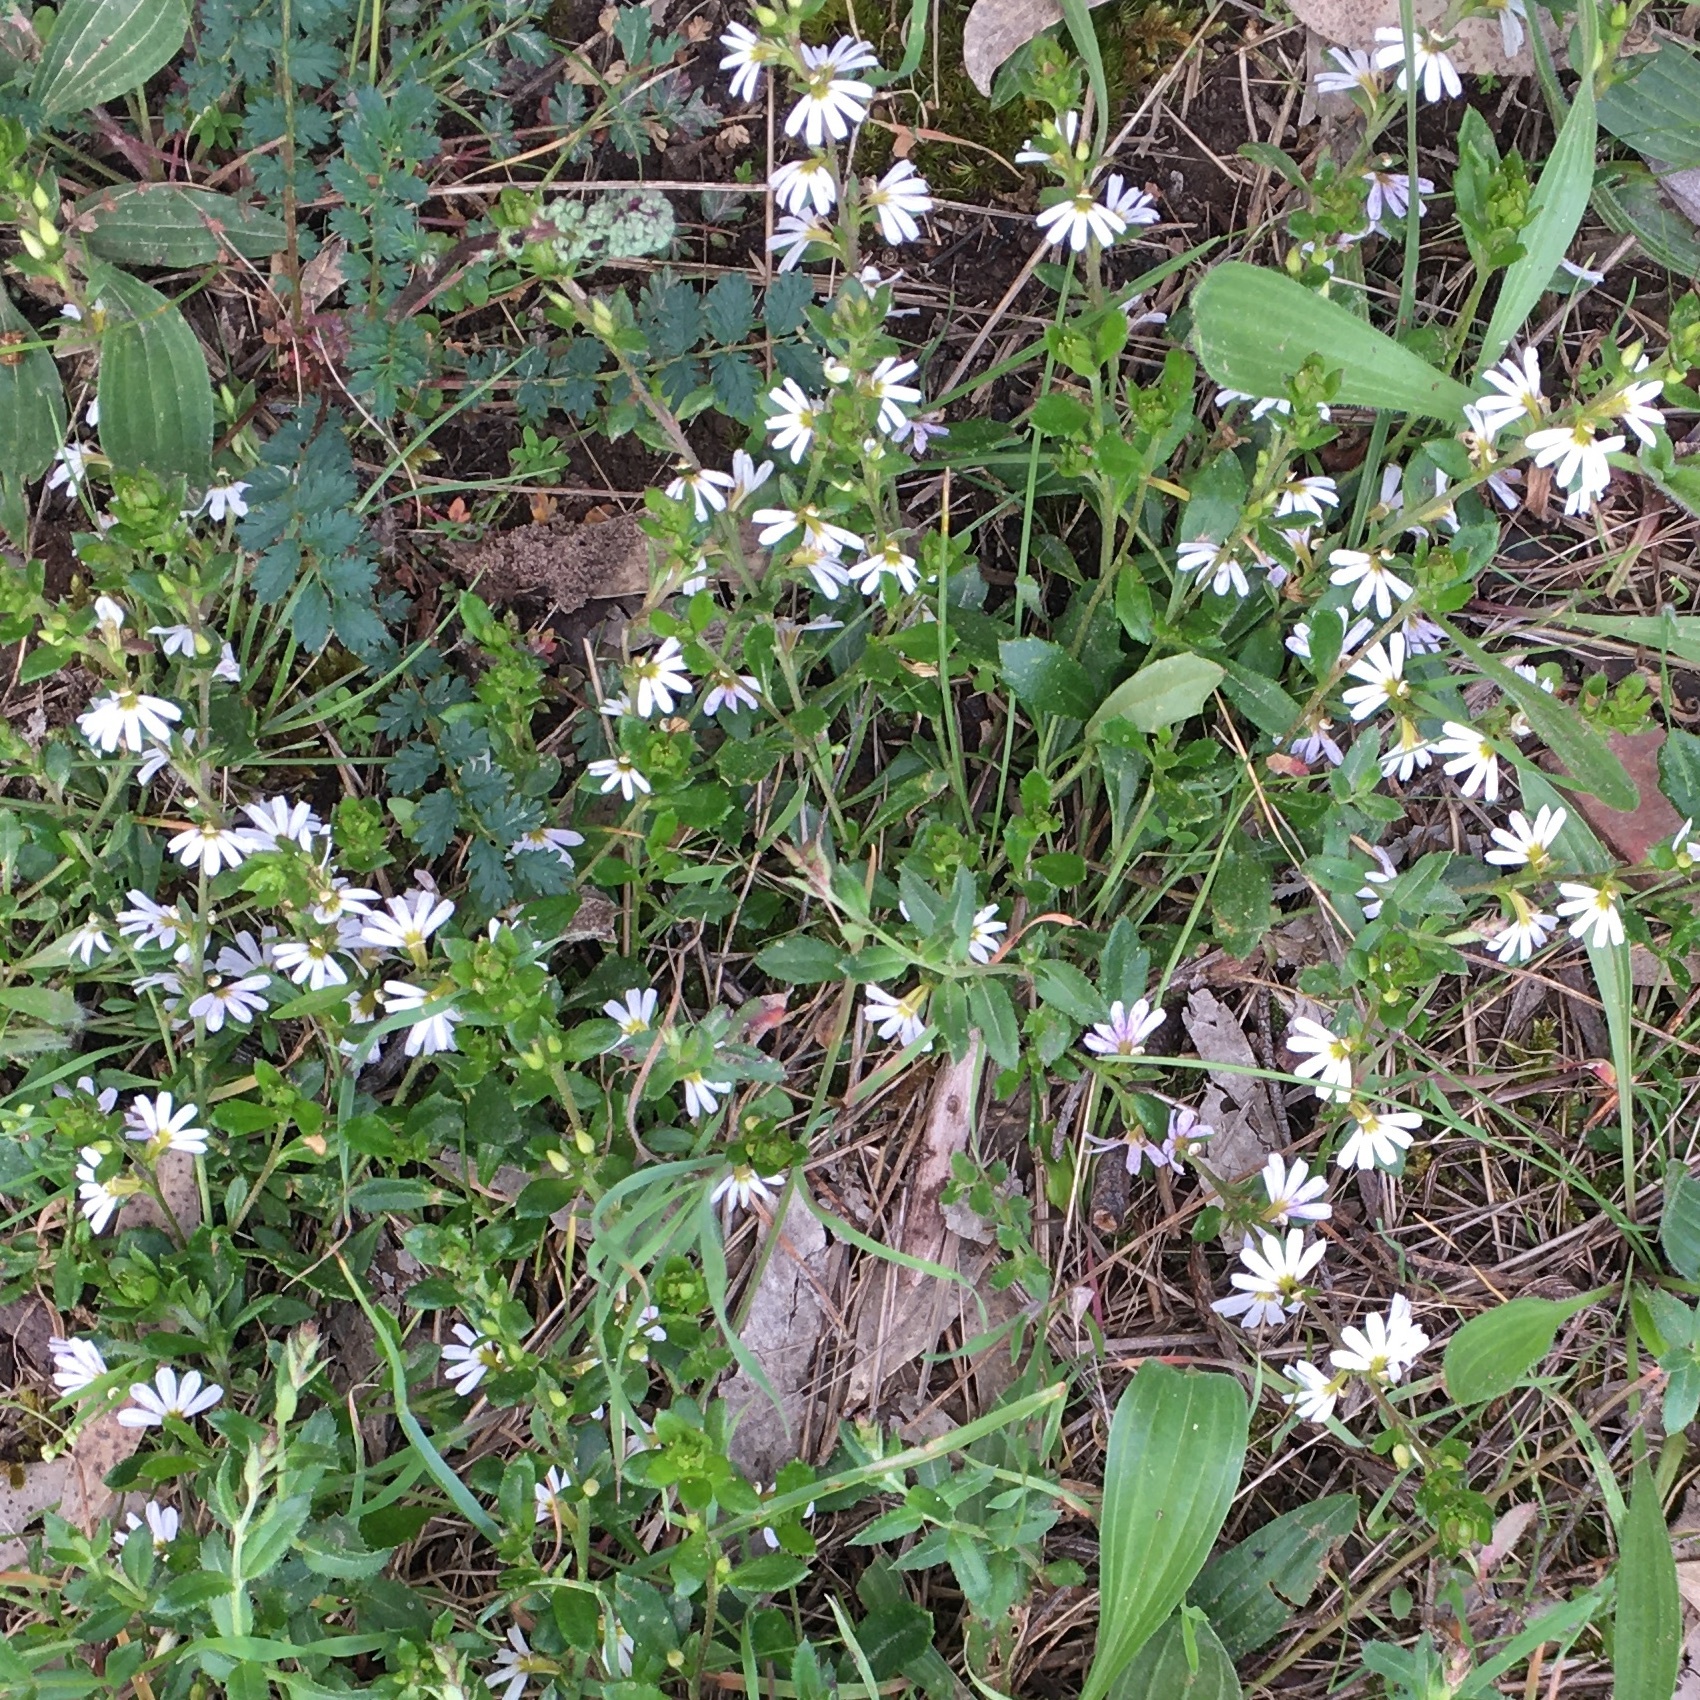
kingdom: Plantae
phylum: Tracheophyta
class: Magnoliopsida
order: Asterales
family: Goodeniaceae
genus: Scaevola
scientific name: Scaevola albida
